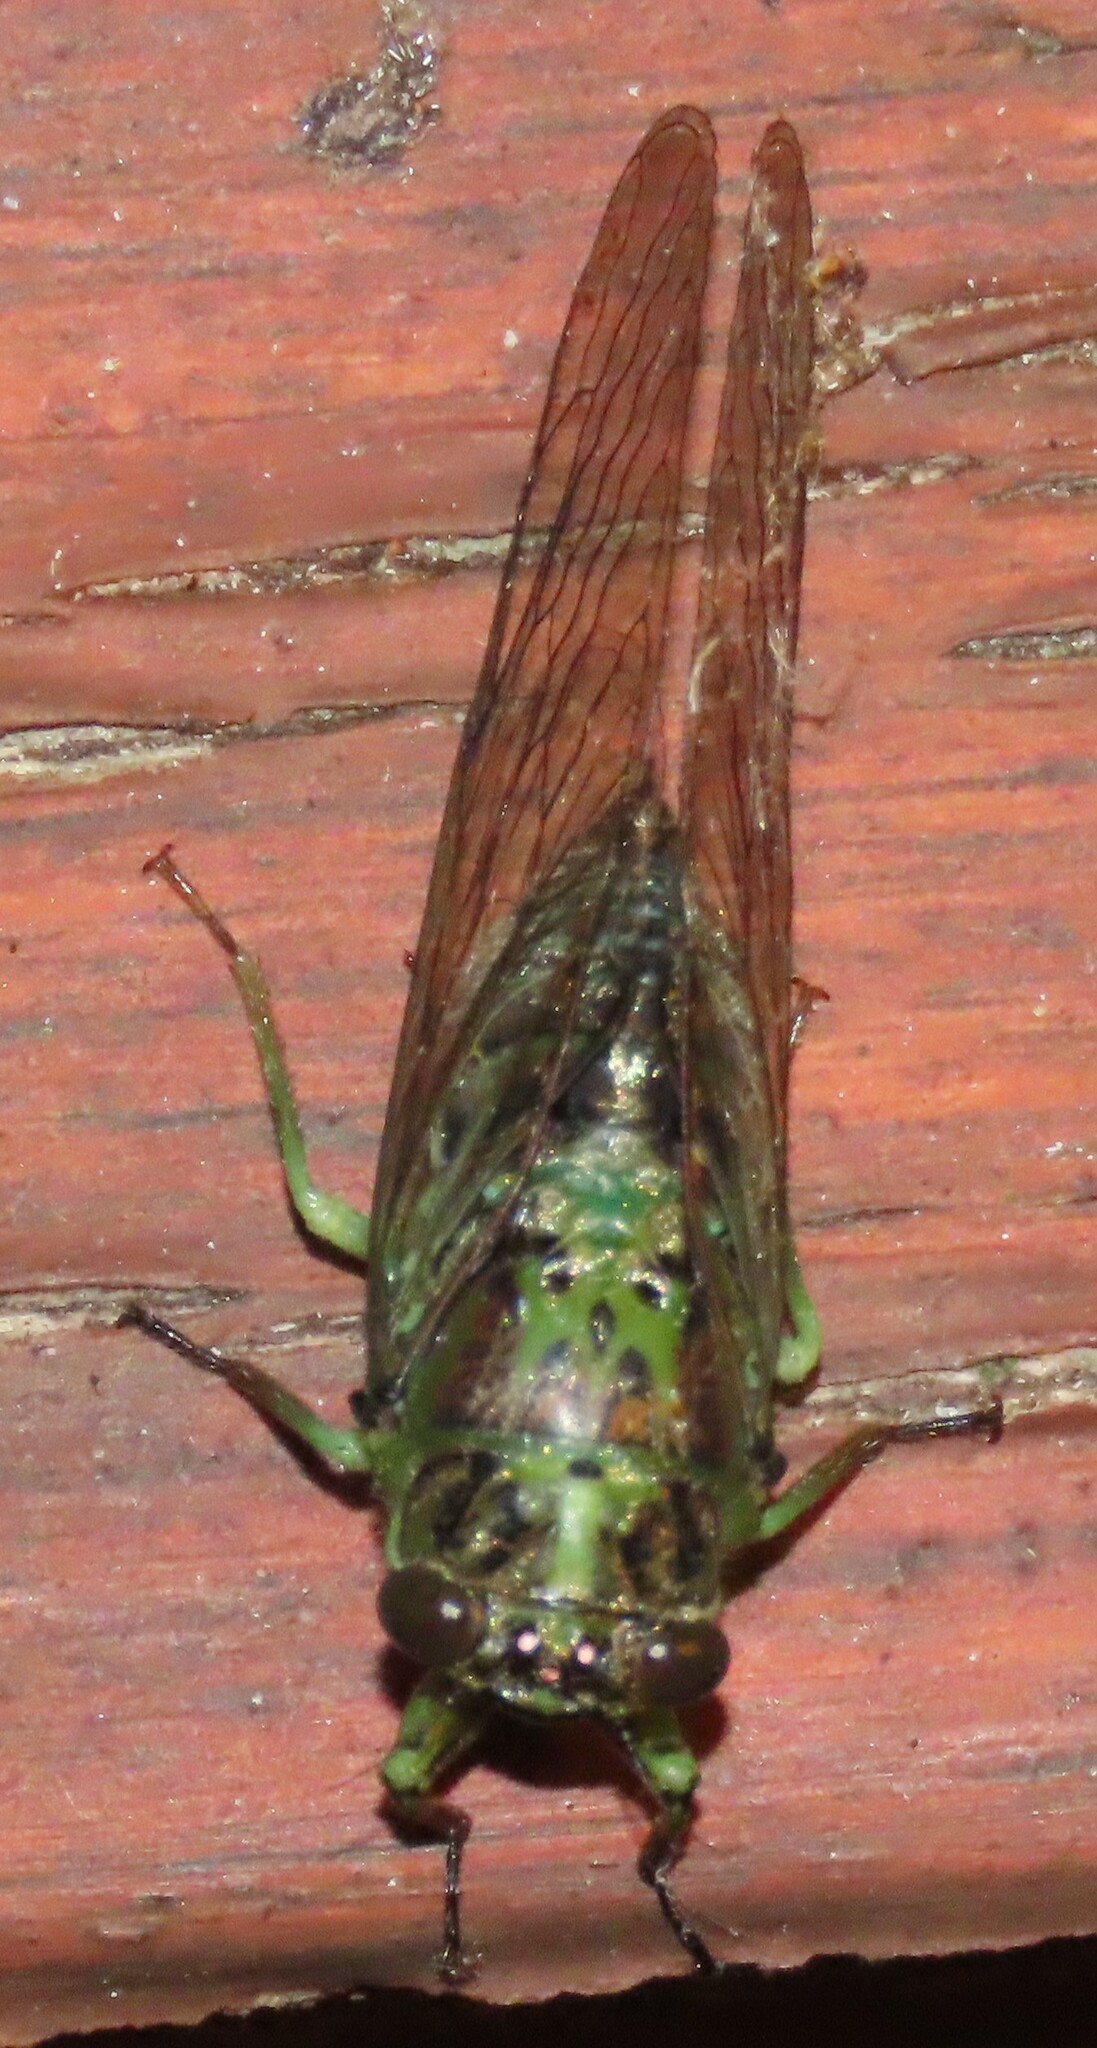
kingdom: Animalia
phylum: Arthropoda
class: Insecta
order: Hemiptera
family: Cicadidae
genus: Kikihia
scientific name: Kikihia scutellaris
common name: Lesser bronze cicada
